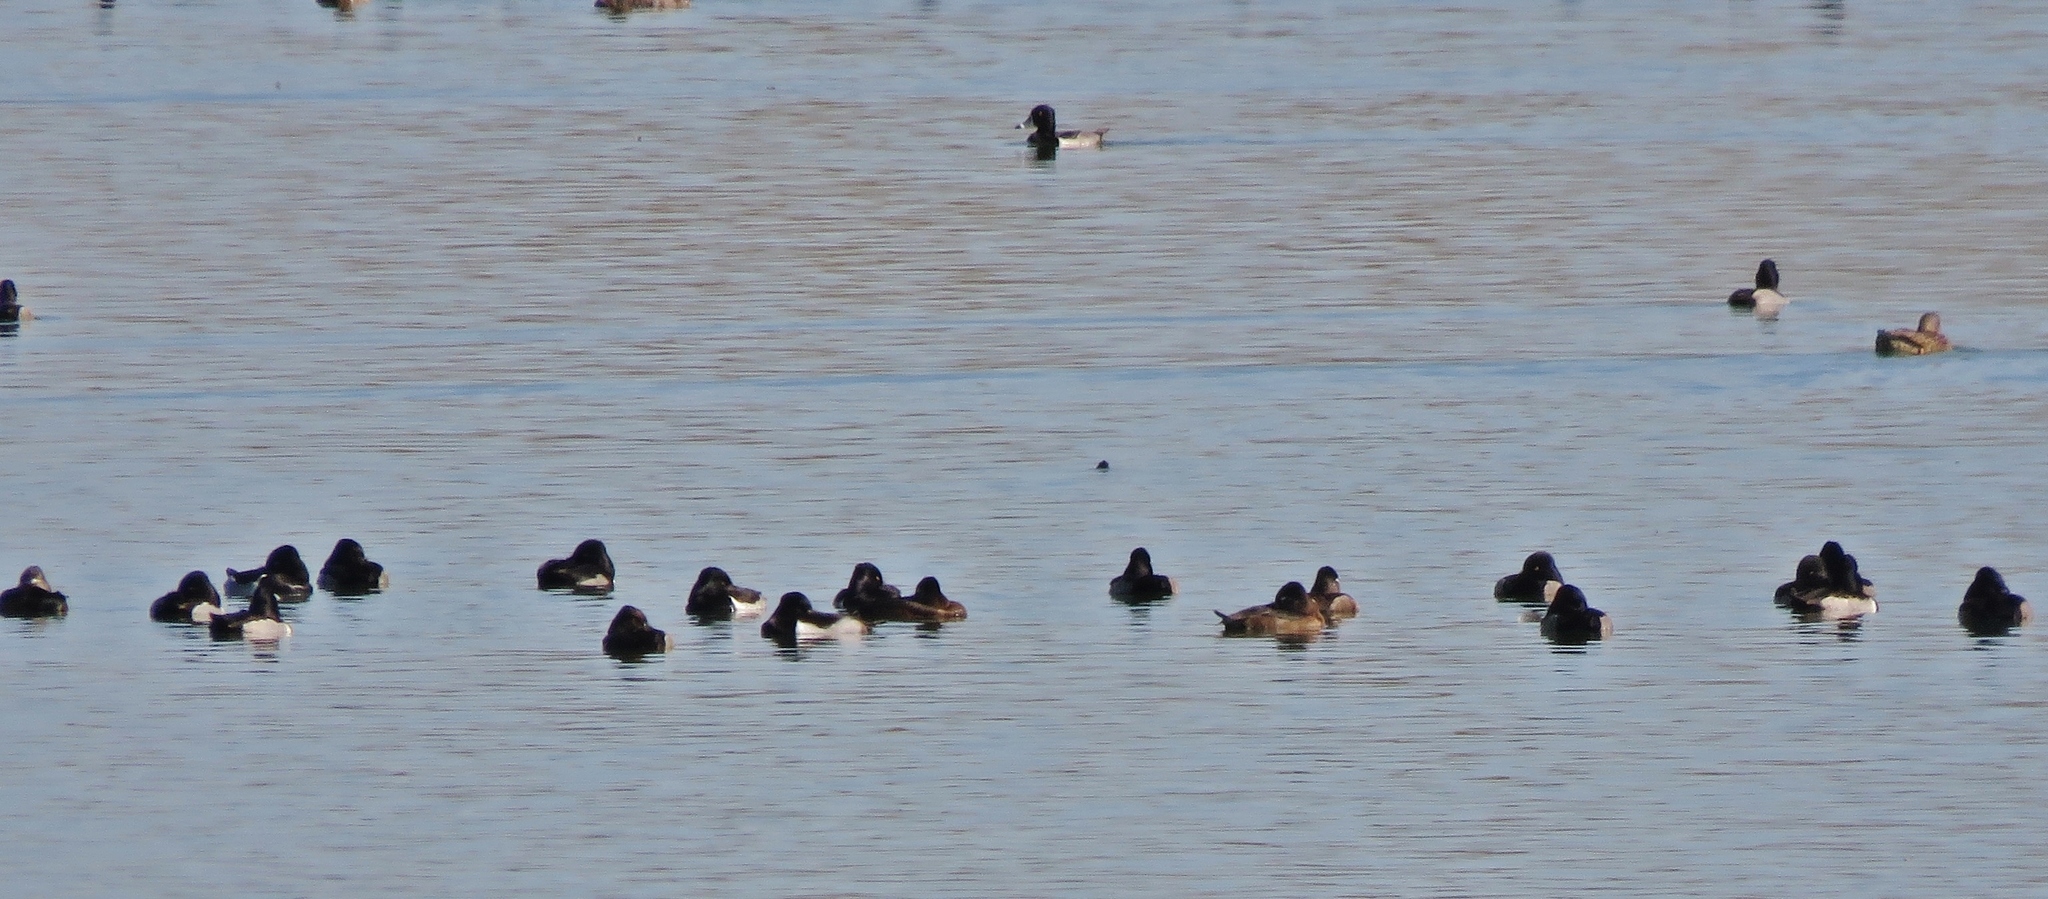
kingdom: Animalia
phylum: Chordata
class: Aves
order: Anseriformes
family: Anatidae
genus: Aythya
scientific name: Aythya collaris
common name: Ring-necked duck
